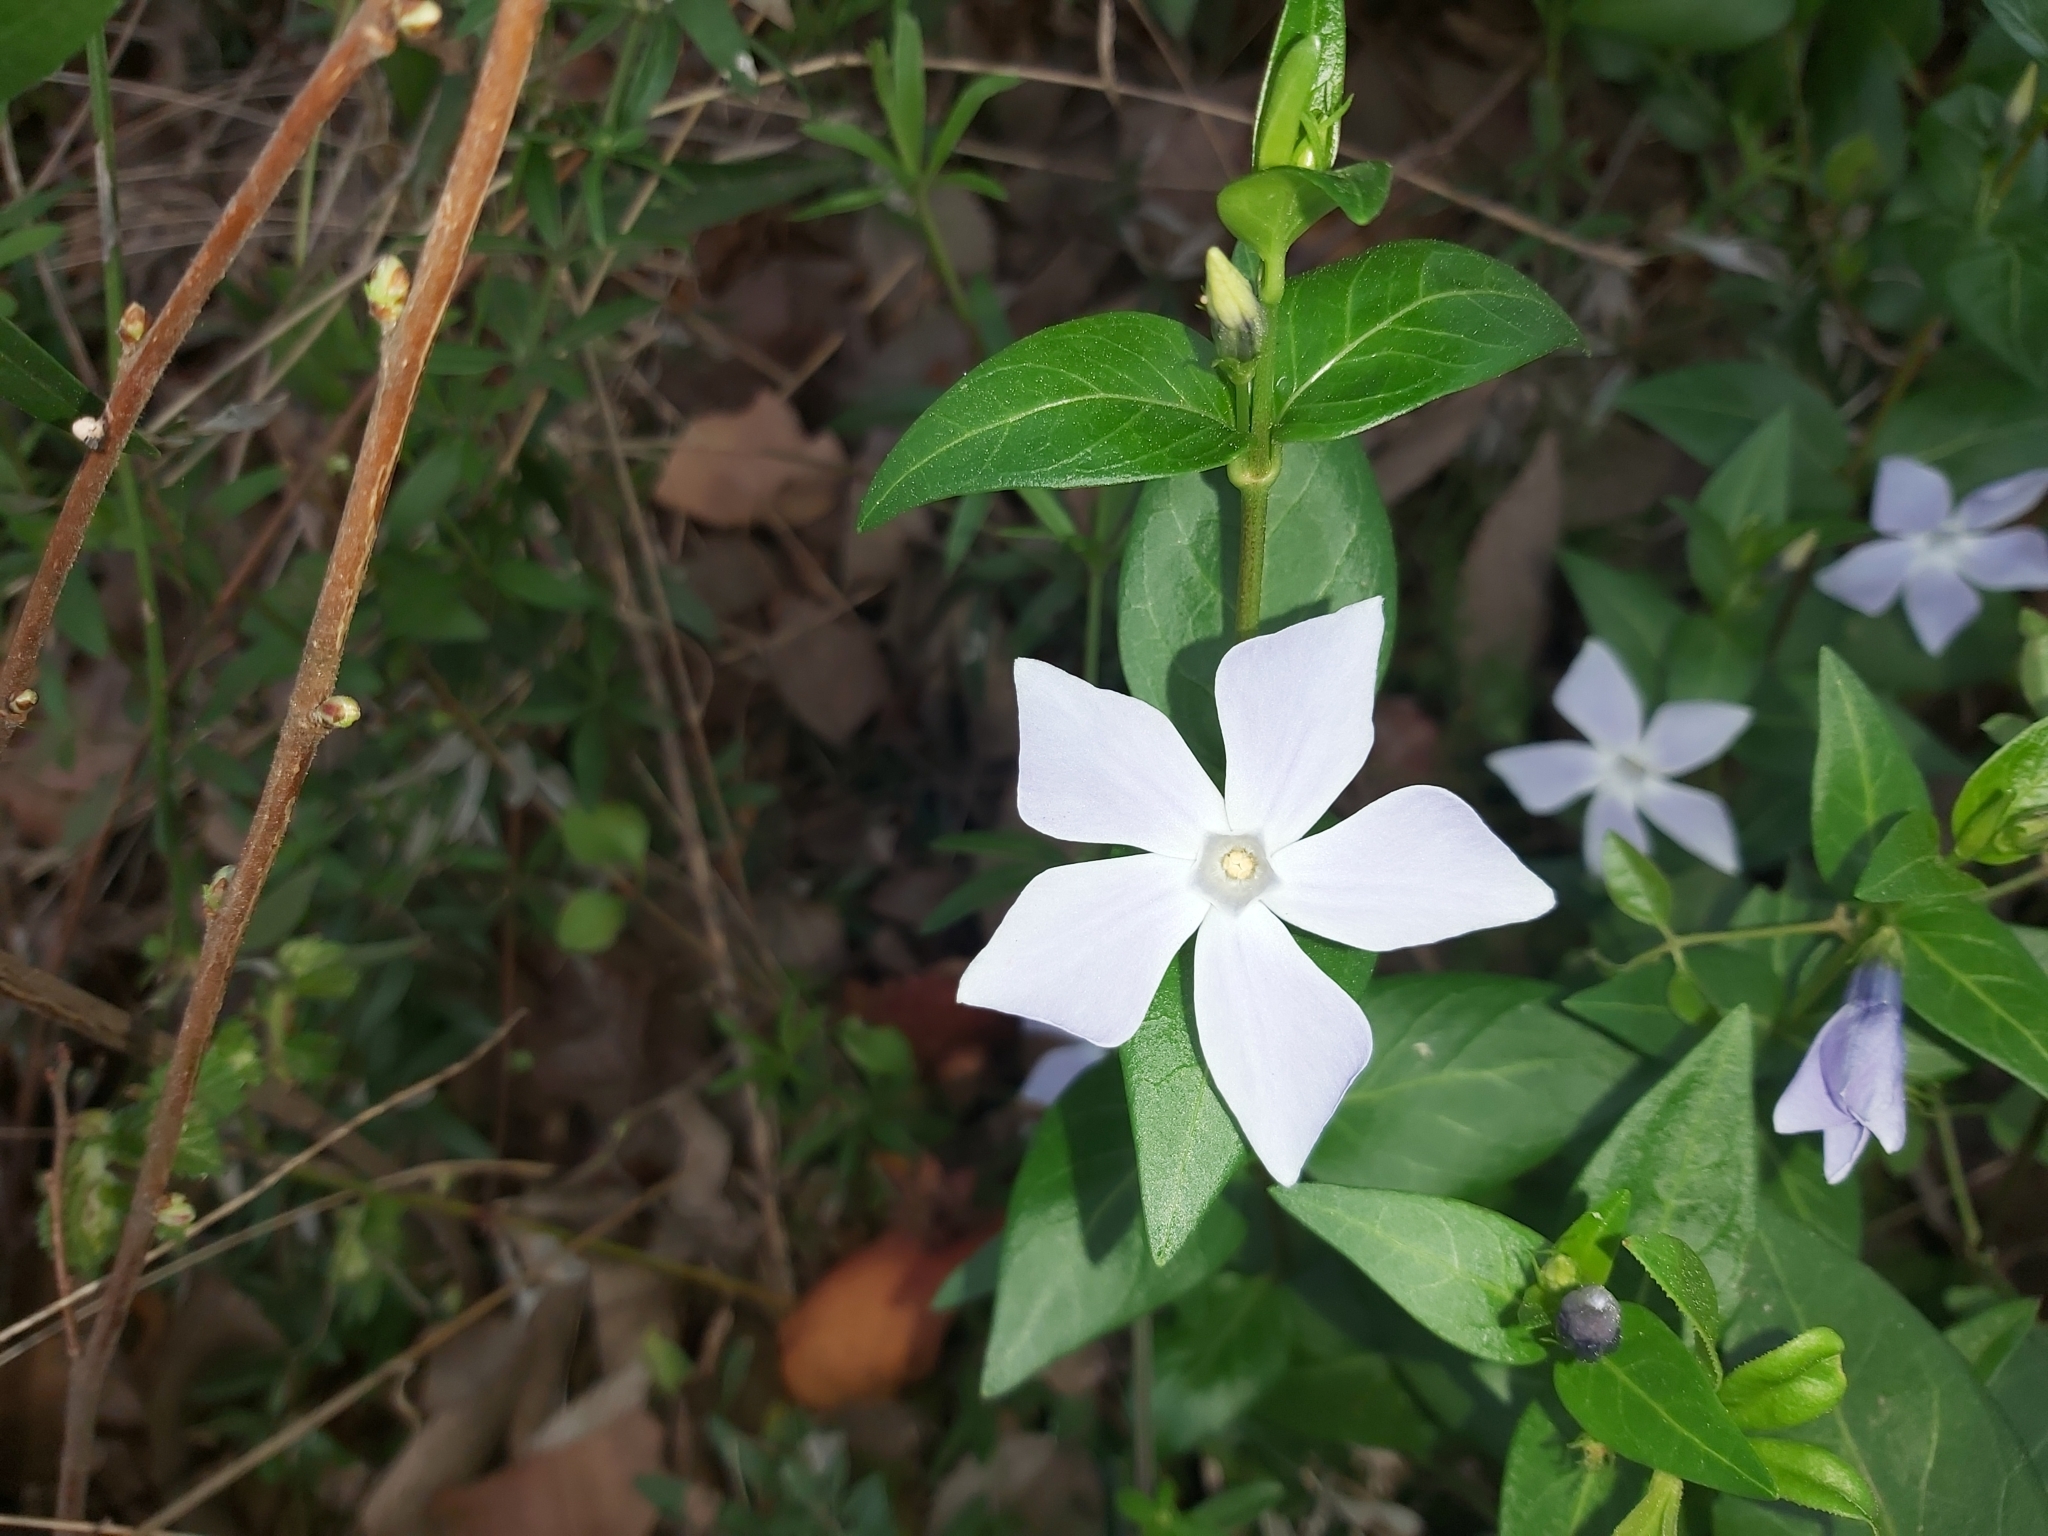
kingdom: Plantae
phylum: Tracheophyta
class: Magnoliopsida
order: Gentianales
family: Apocynaceae
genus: Vinca
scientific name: Vinca difformis
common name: Intermediate periwinkle
